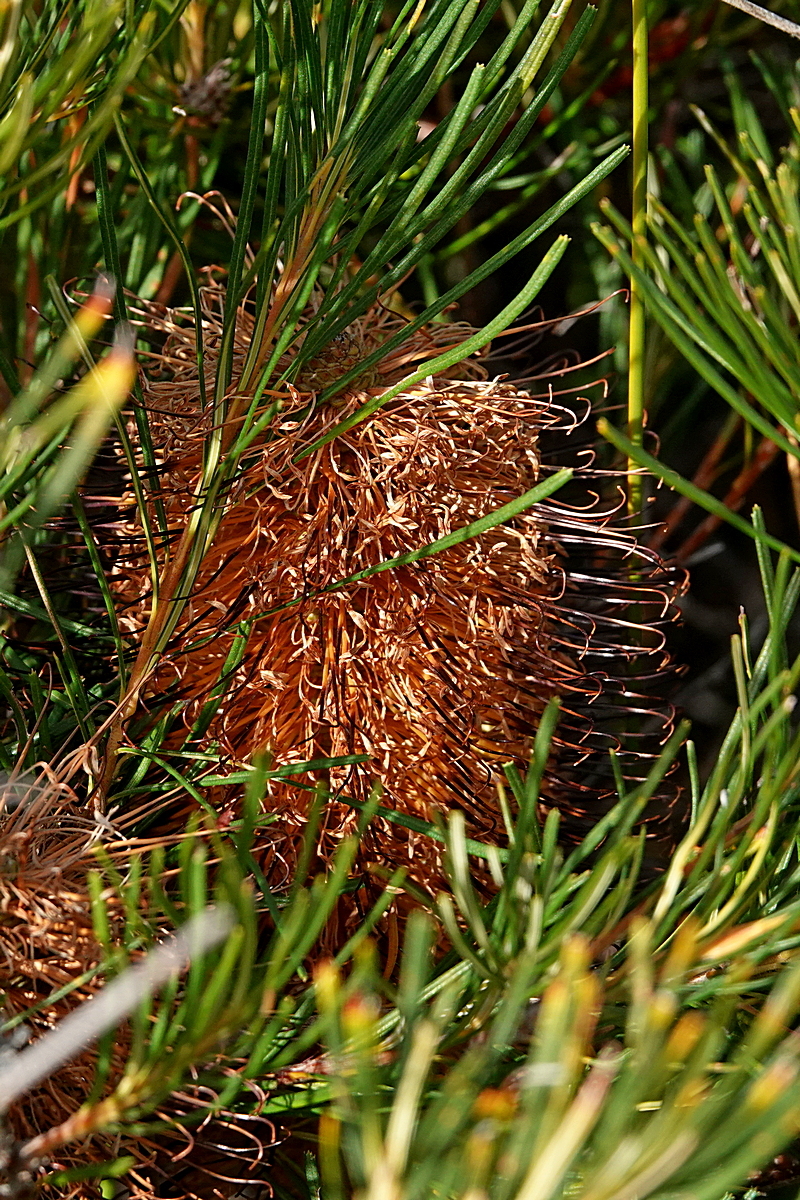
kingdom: Plantae
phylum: Tracheophyta
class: Magnoliopsida
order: Proteales
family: Proteaceae
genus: Banksia
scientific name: Banksia spinulosa
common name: Hairpin banksia
